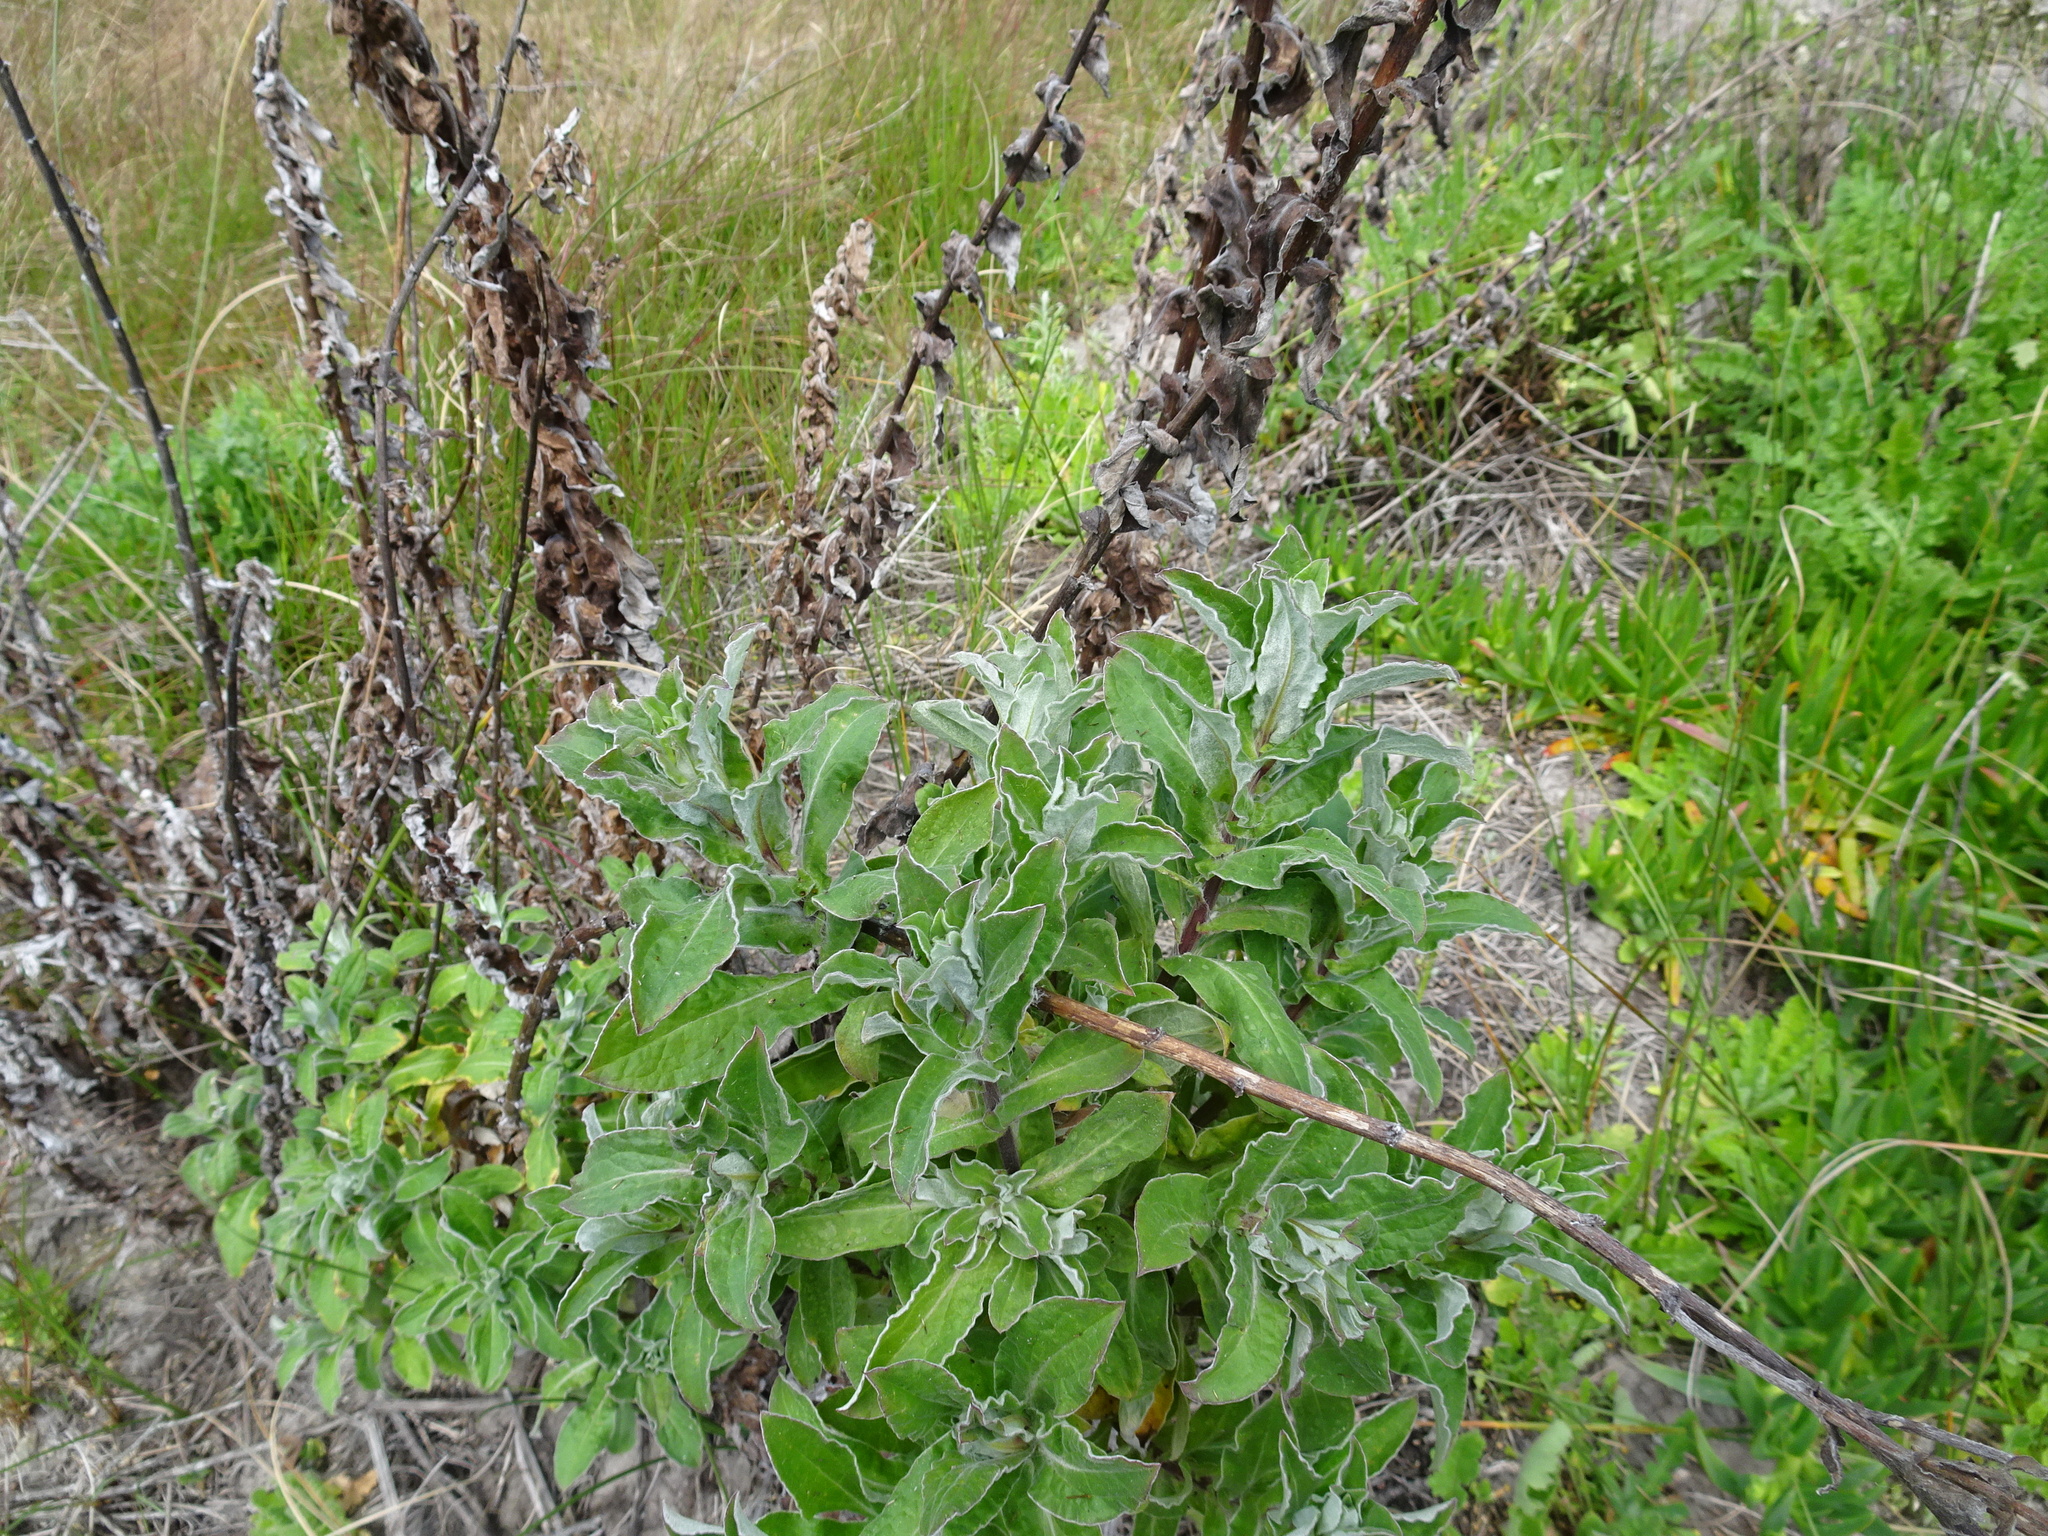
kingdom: Plantae
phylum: Tracheophyta
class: Magnoliopsida
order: Asterales
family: Asteraceae
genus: Helichrysum
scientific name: Helichrysum foetidum
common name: Stinking everlasting
